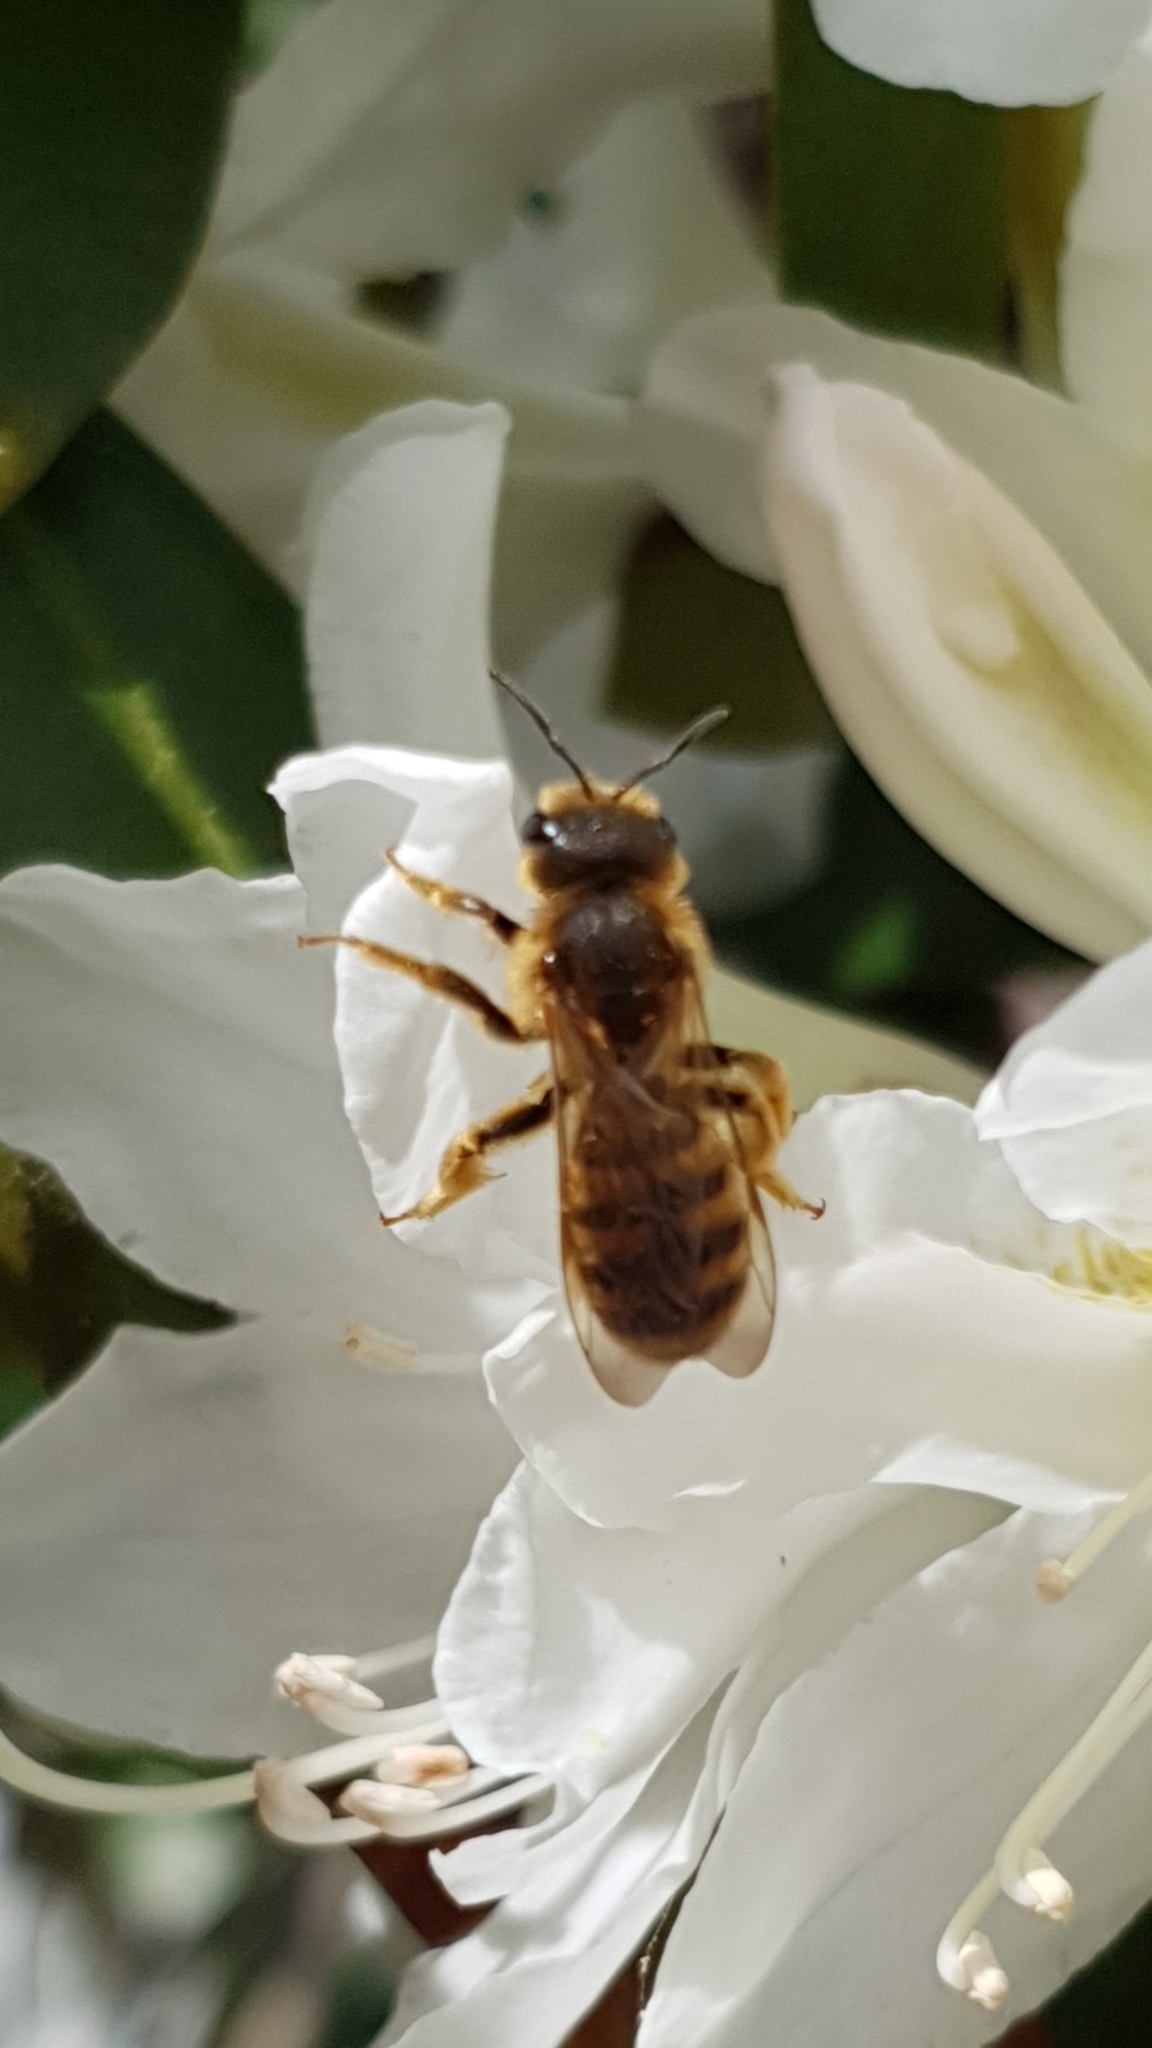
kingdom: Animalia
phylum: Arthropoda
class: Insecta
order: Hymenoptera
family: Halictidae
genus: Halictus
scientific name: Halictus scabiosae
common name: Great banded furrow bee
